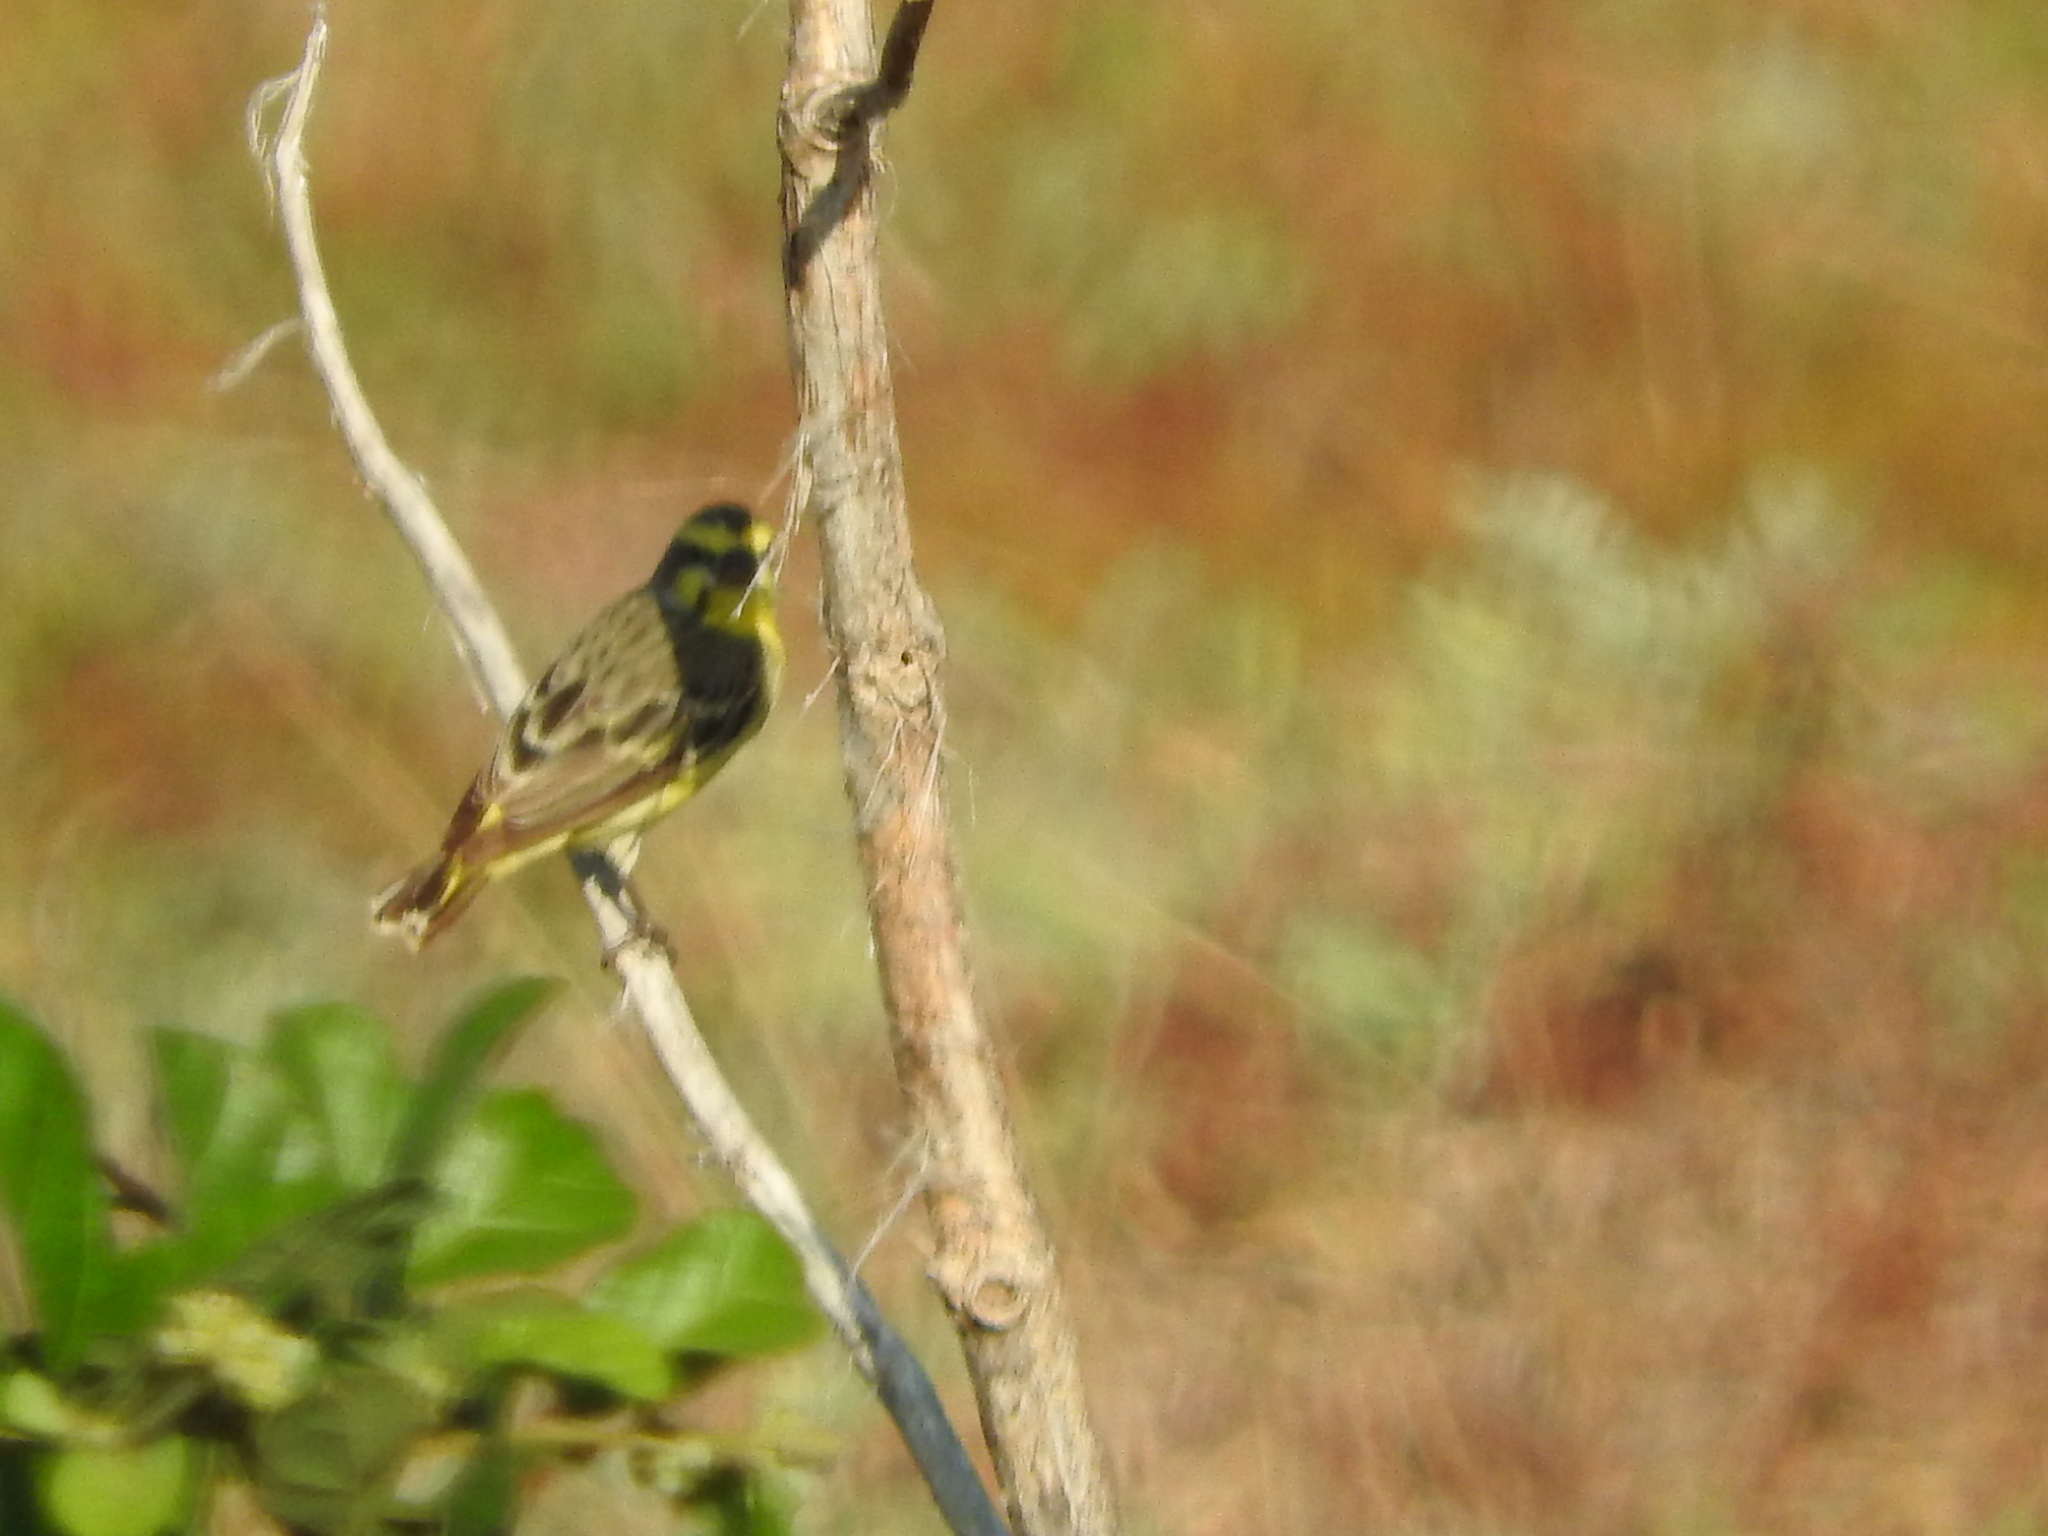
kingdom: Animalia
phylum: Chordata
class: Aves
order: Passeriformes
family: Fringillidae
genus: Crithagra
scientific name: Crithagra mozambica
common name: Yellow-fronted canary
